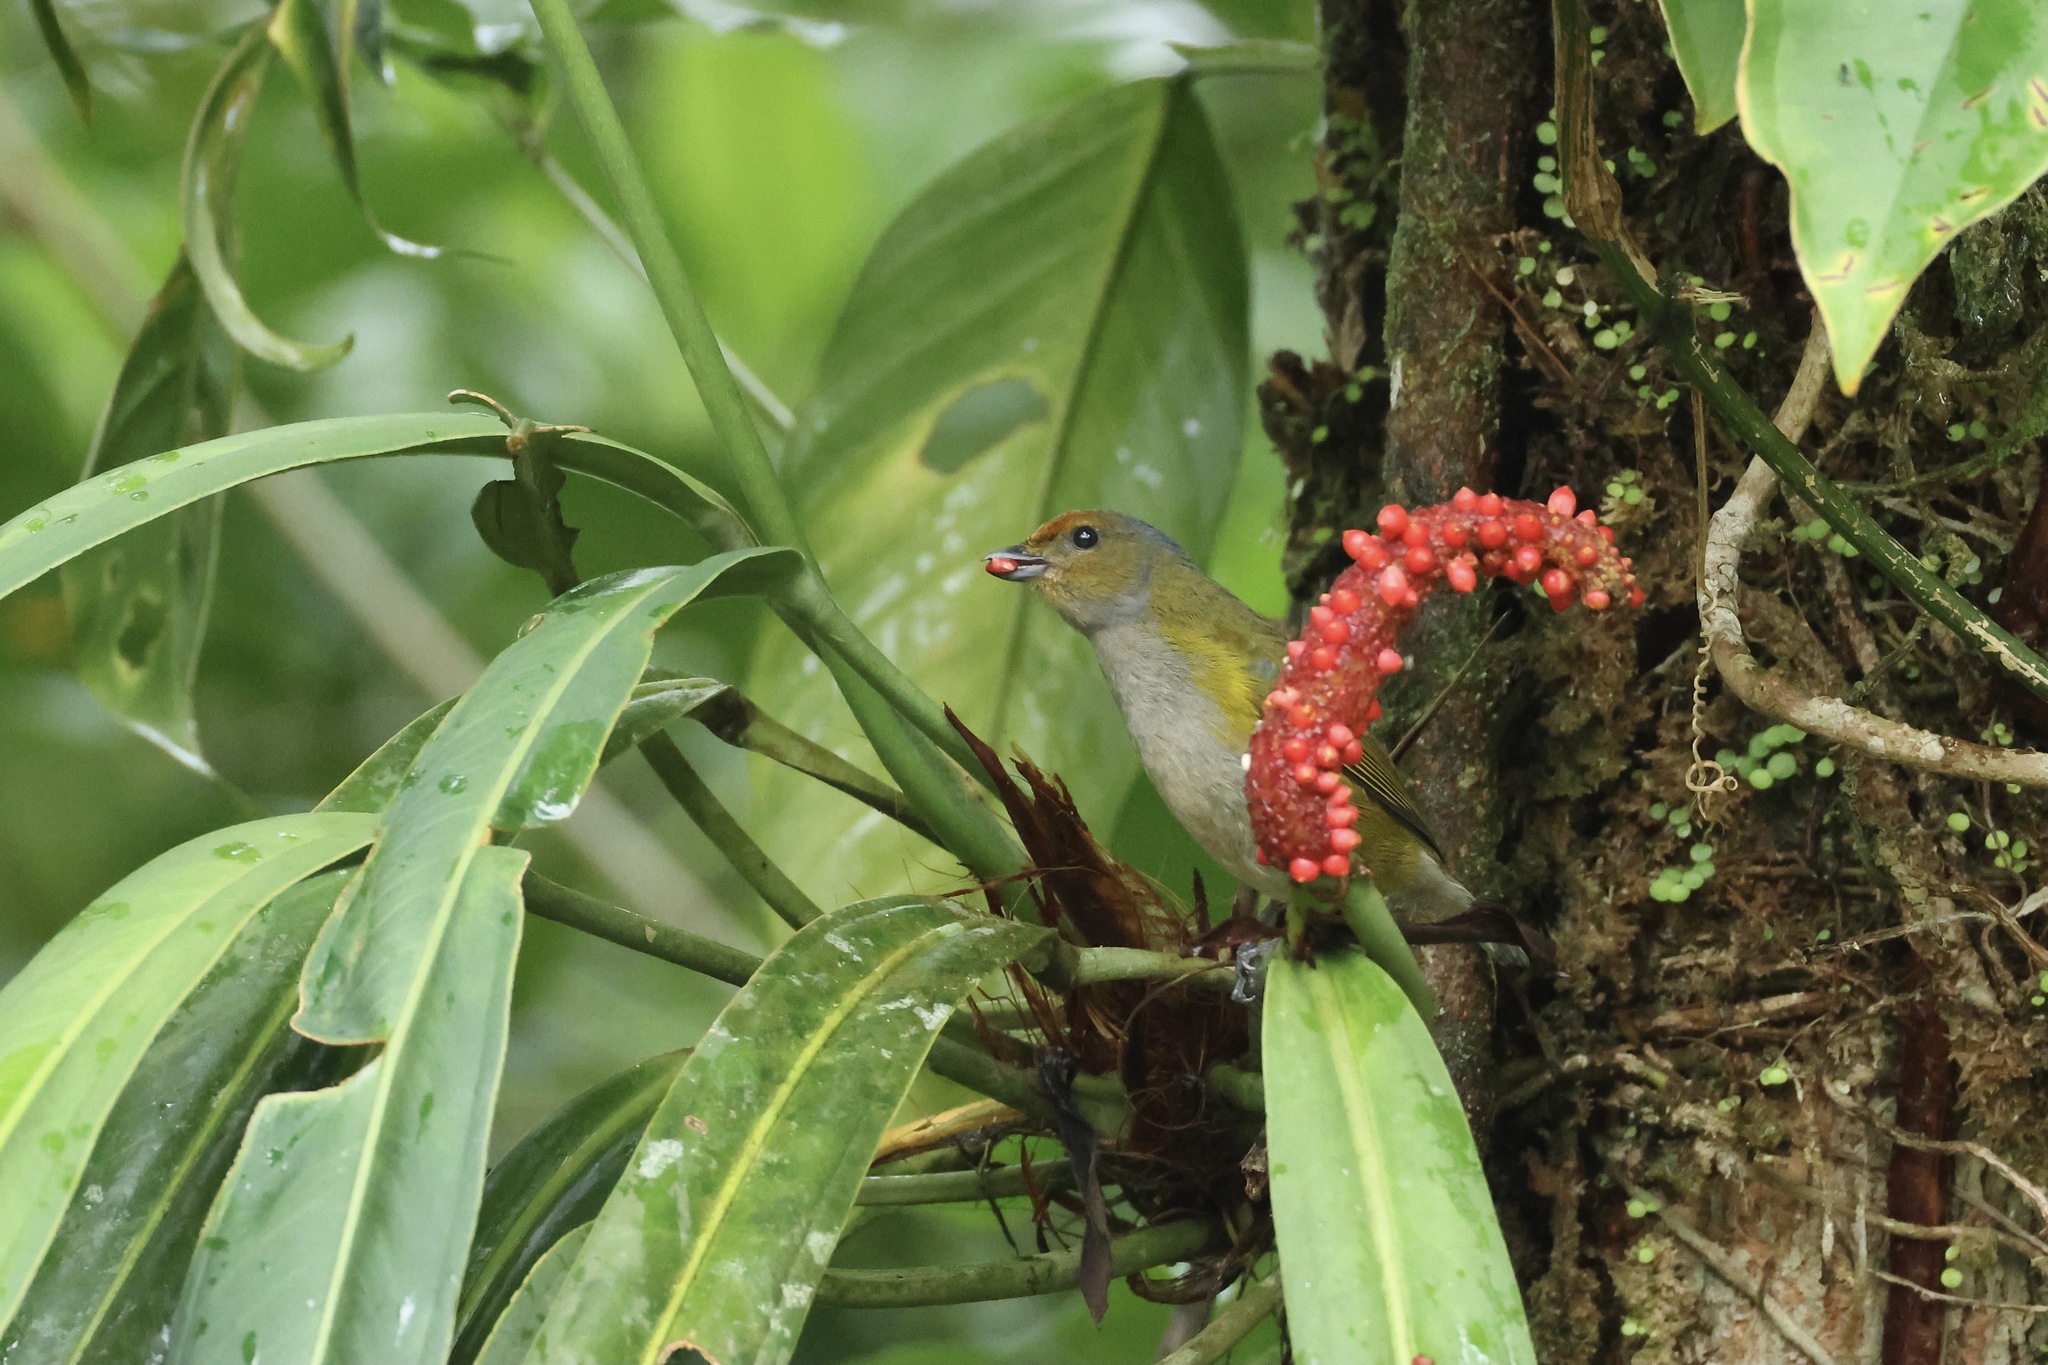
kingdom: Animalia
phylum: Chordata
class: Aves
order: Passeriformes
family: Fringillidae
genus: Euphonia
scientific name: Euphonia anneae
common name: Tawny-capped euphonia
